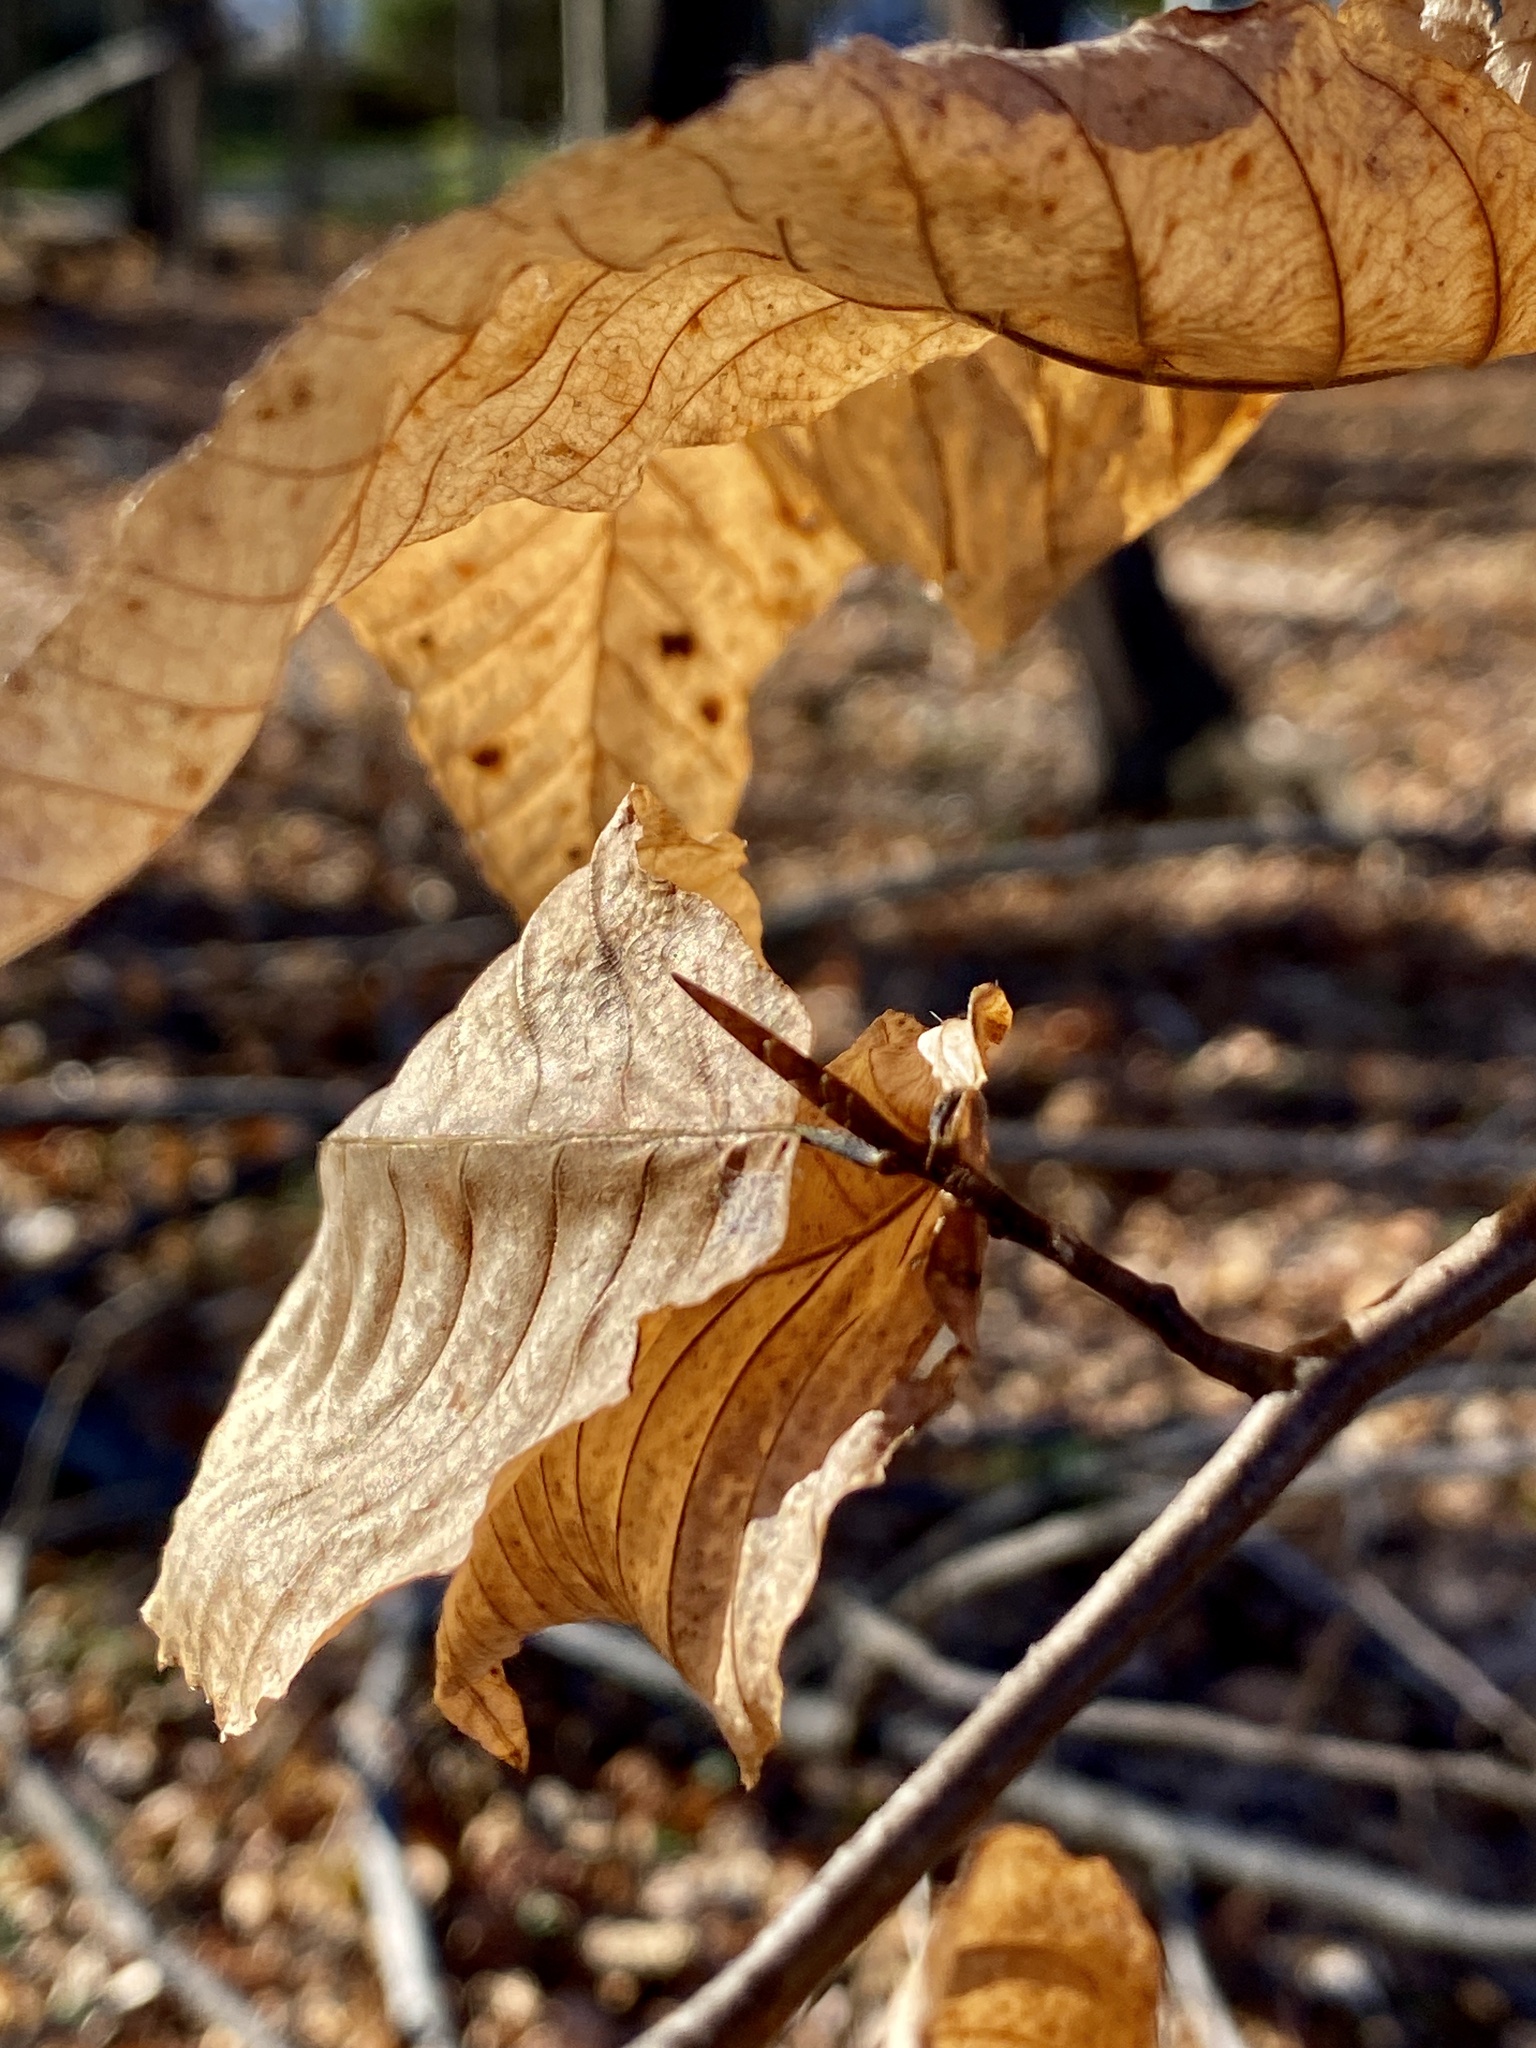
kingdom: Plantae
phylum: Tracheophyta
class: Magnoliopsida
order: Fagales
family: Fagaceae
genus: Fagus
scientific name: Fagus grandifolia
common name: American beech
